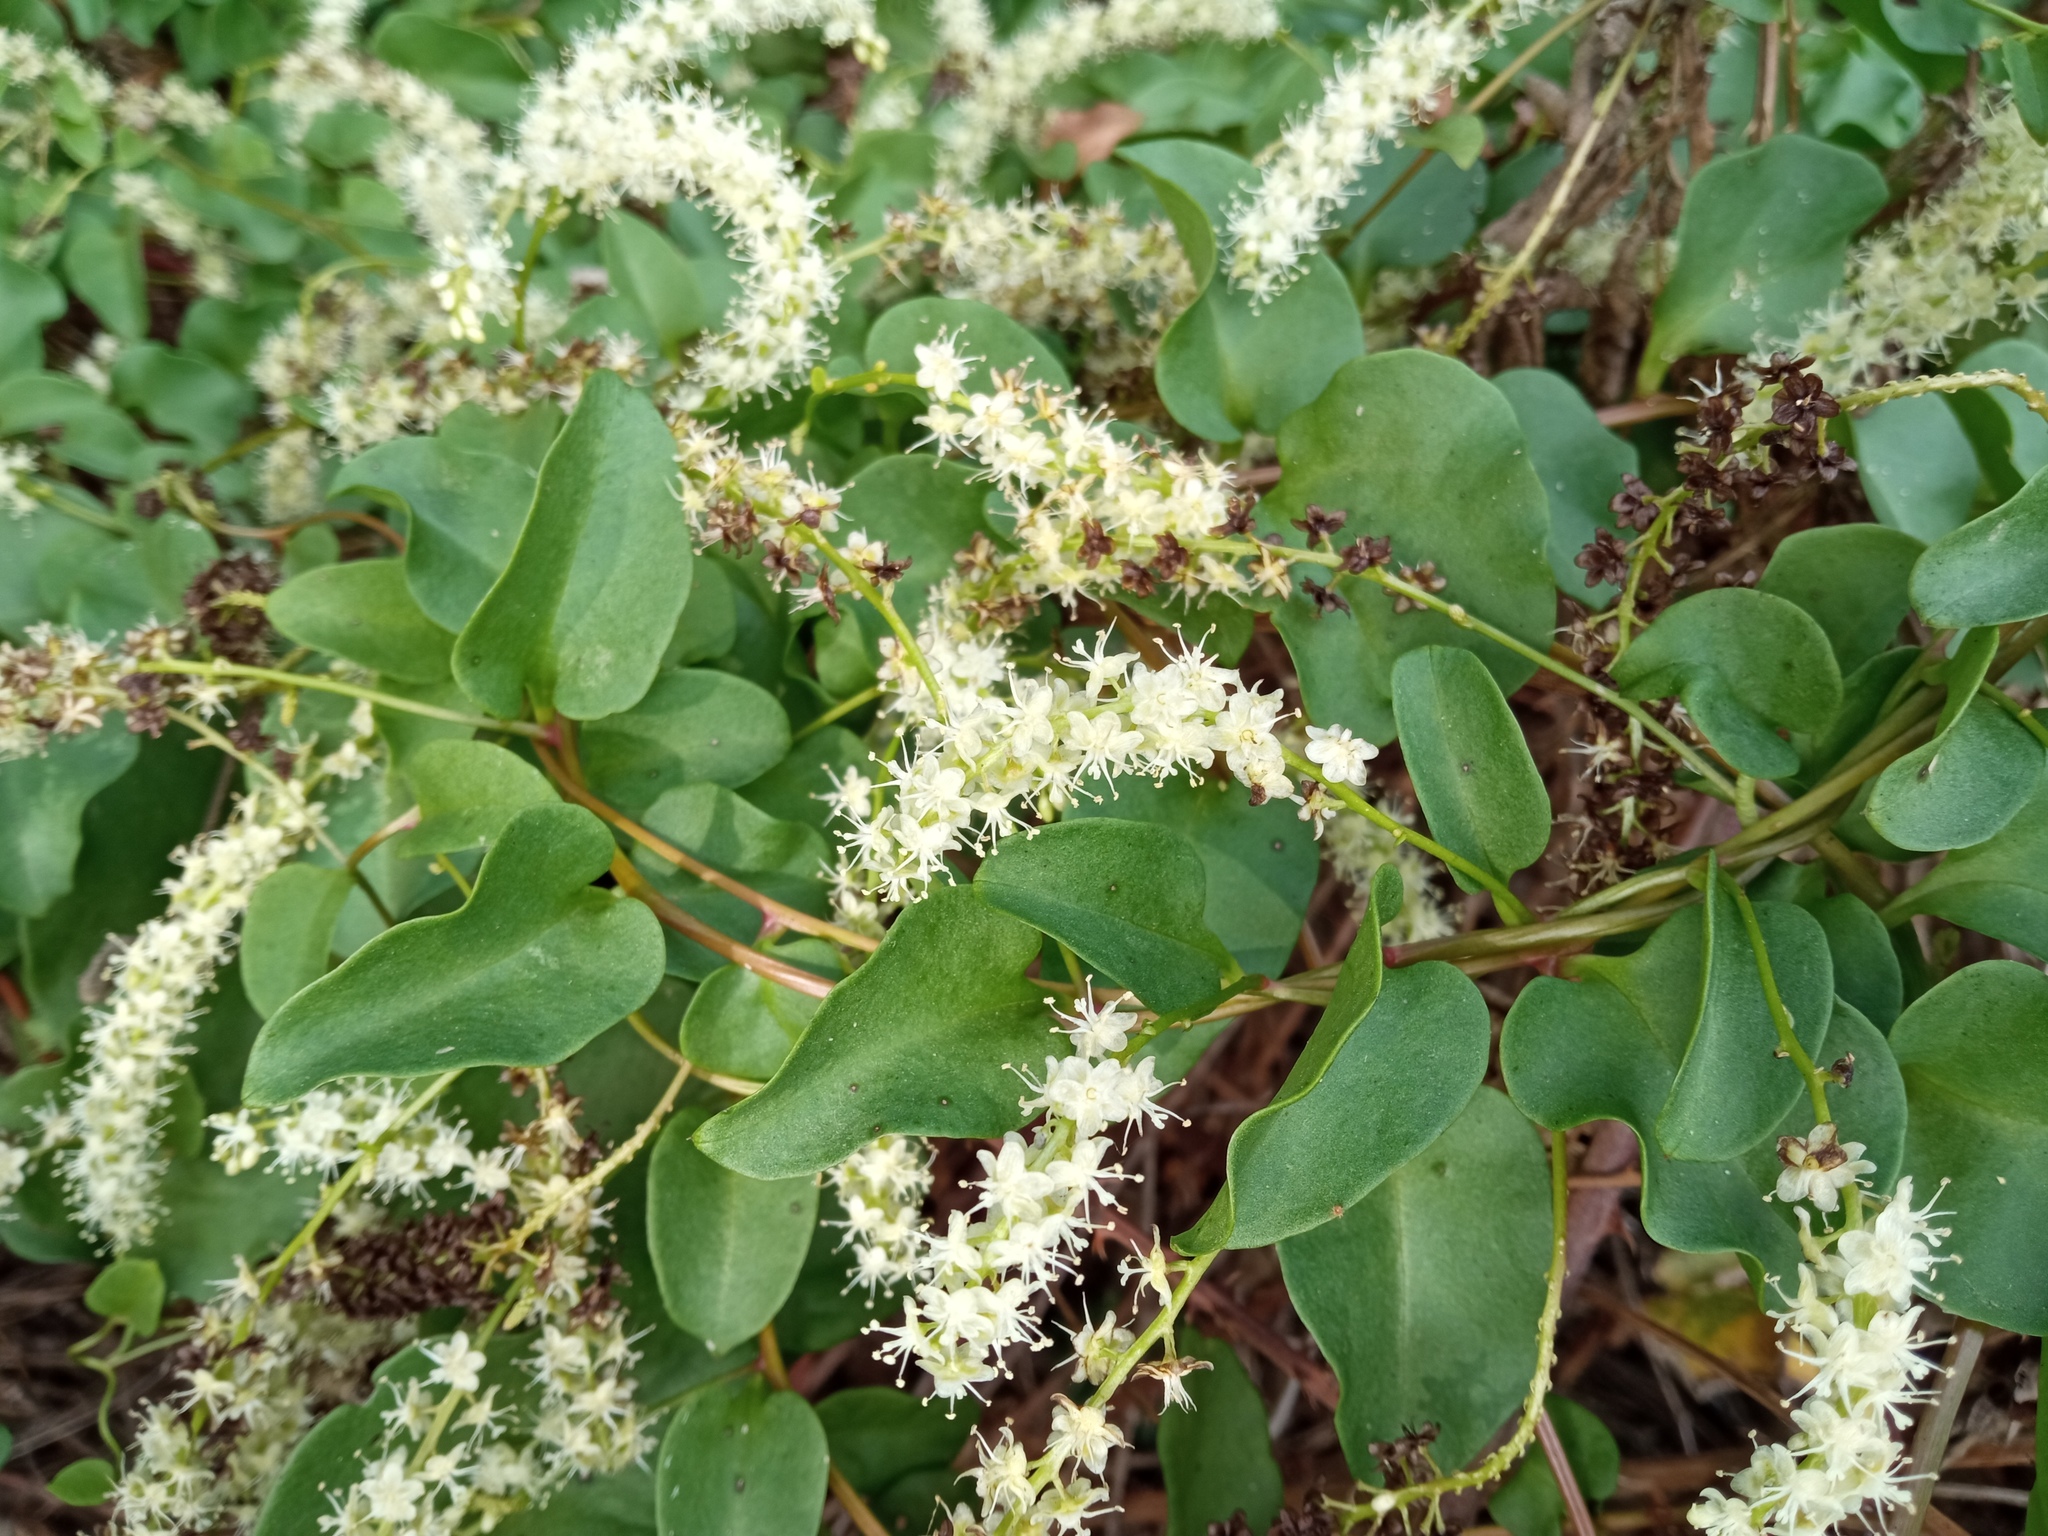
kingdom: Plantae
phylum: Tracheophyta
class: Magnoliopsida
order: Caryophyllales
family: Basellaceae
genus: Anredera
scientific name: Anredera cordifolia
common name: Heartleaf madeiravine
